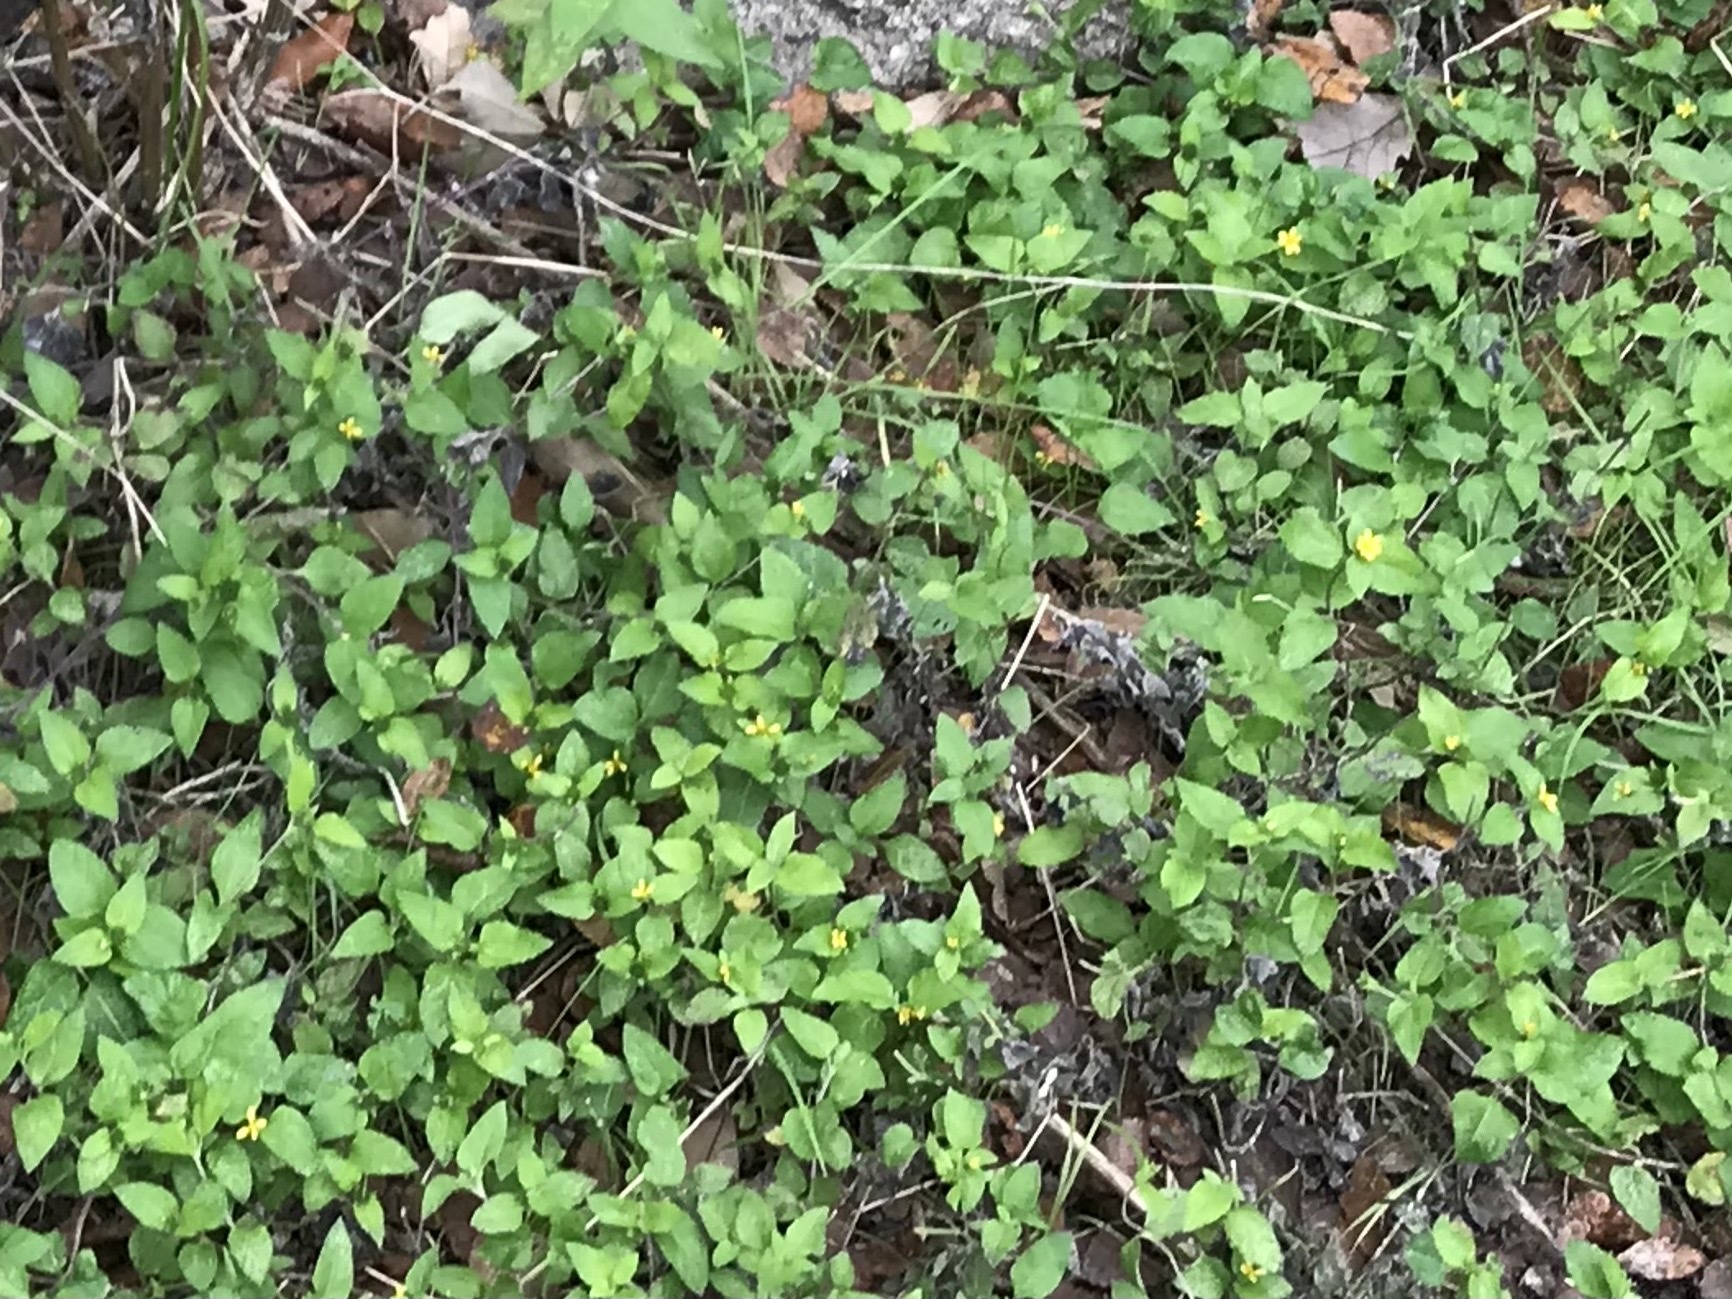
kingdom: Plantae
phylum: Tracheophyta
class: Magnoliopsida
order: Asterales
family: Asteraceae
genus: Calyptocarpus
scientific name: Calyptocarpus vialis
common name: Straggler daisy
